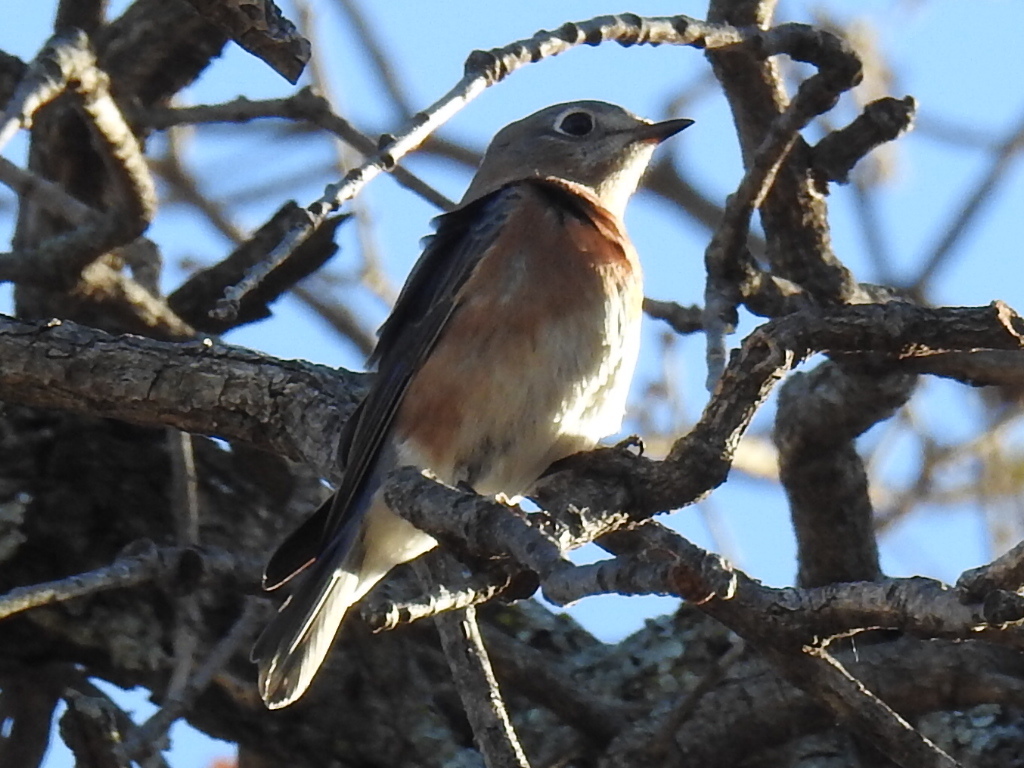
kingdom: Animalia
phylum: Chordata
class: Aves
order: Passeriformes
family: Turdidae
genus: Sialia
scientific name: Sialia sialis
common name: Eastern bluebird
